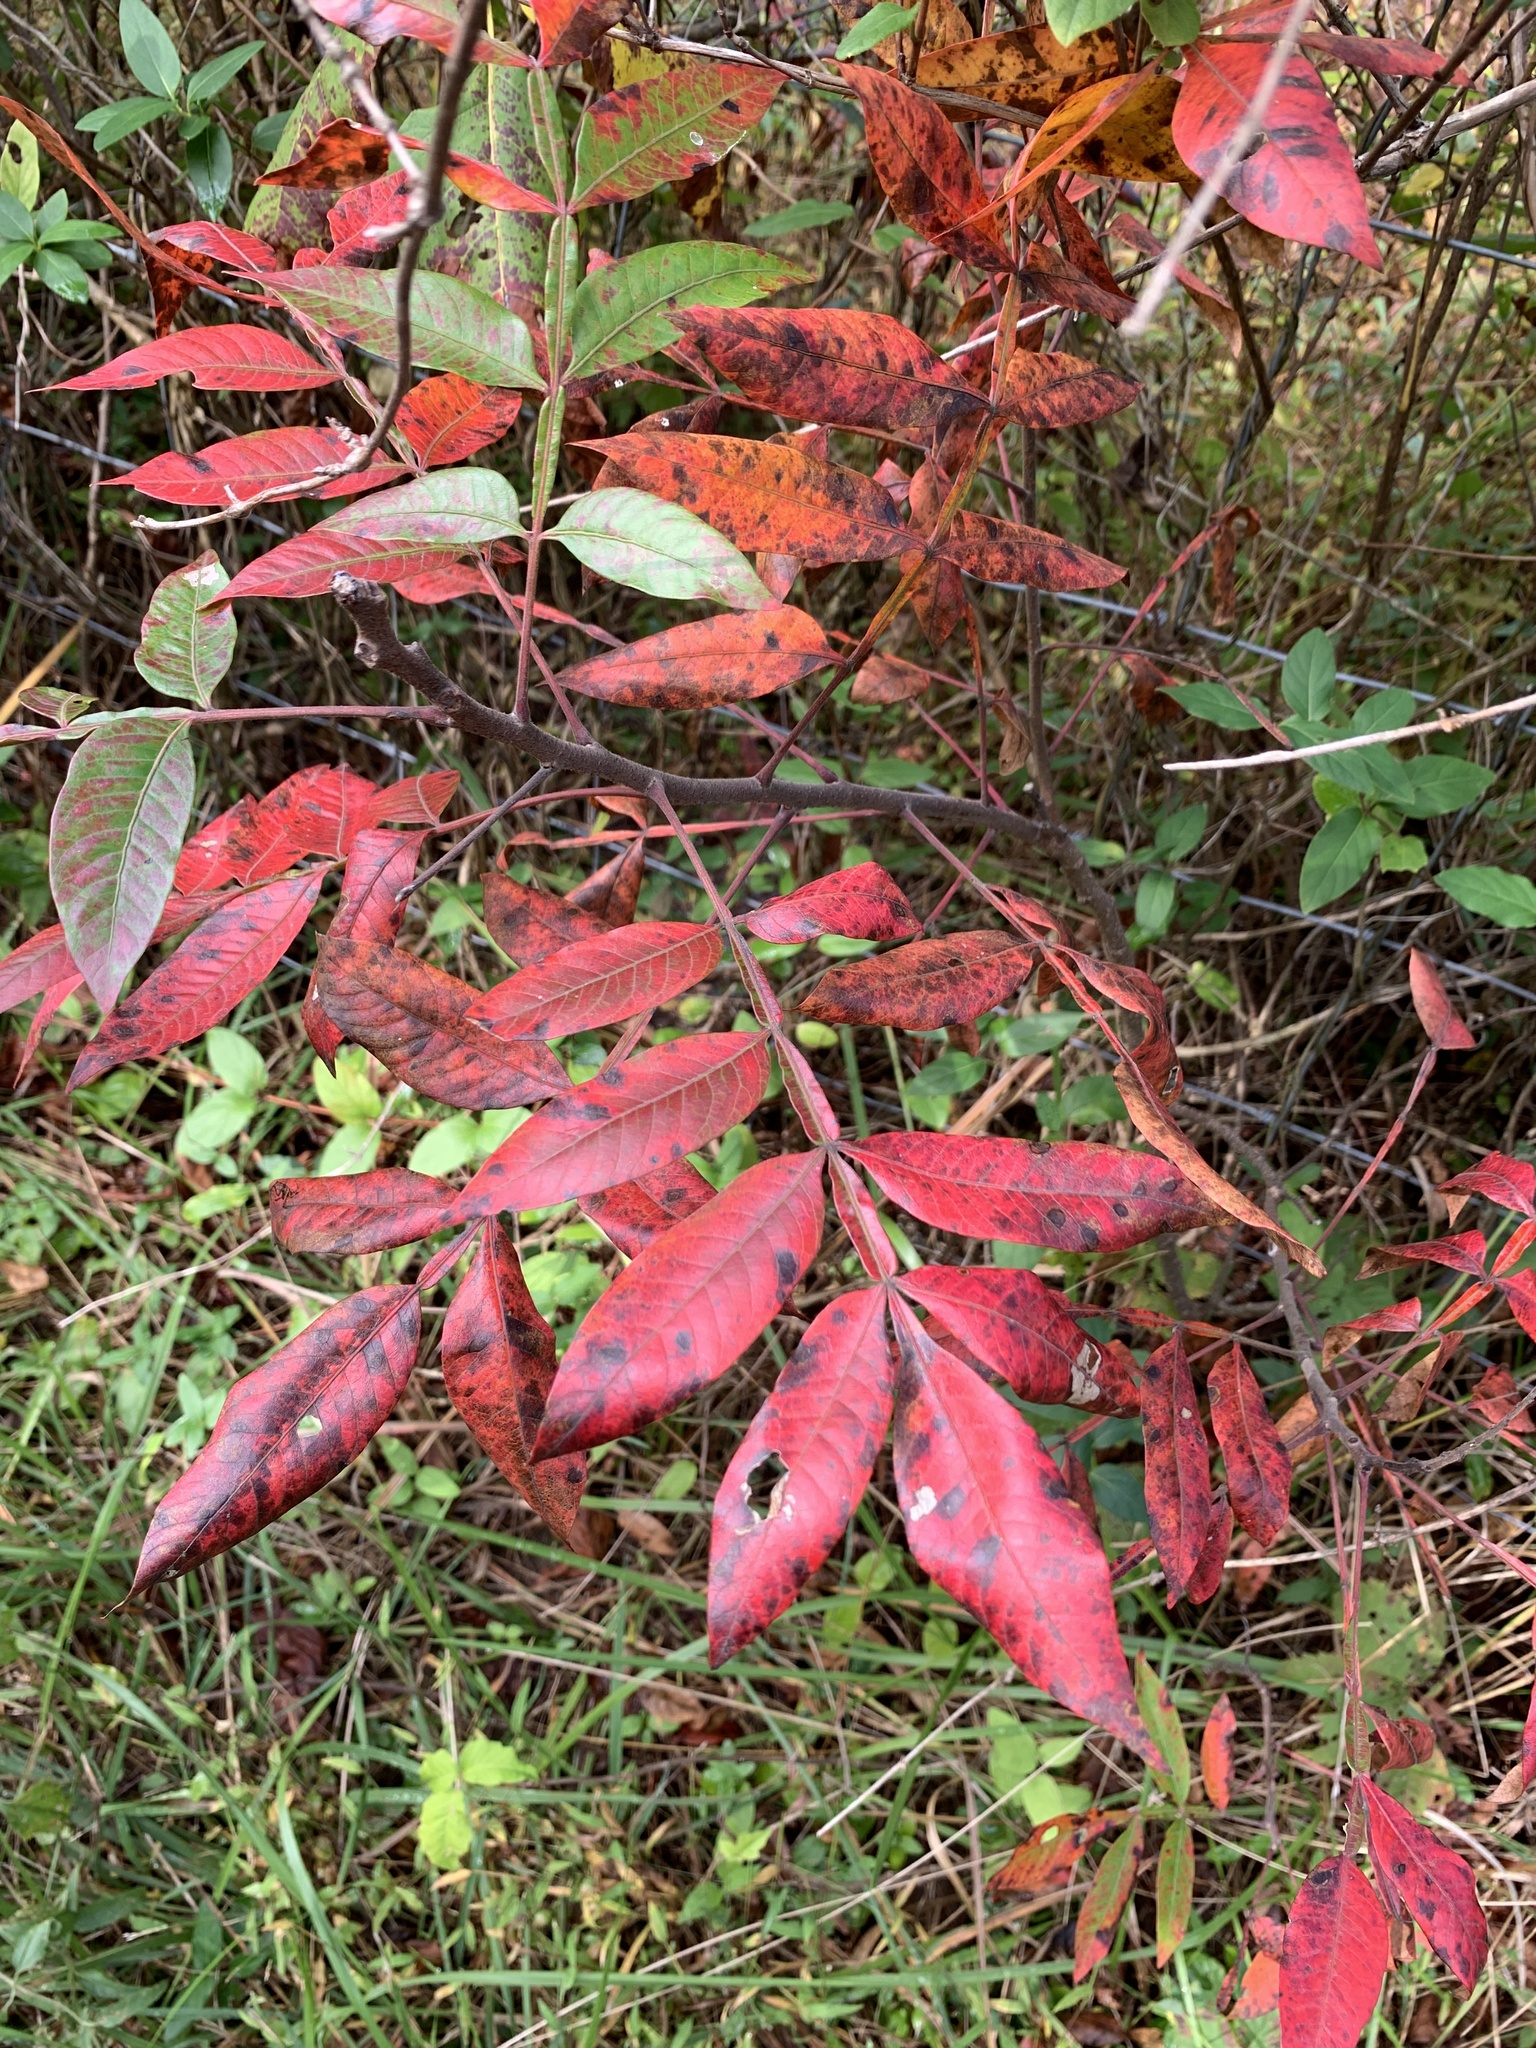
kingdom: Plantae
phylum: Tracheophyta
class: Magnoliopsida
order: Sapindales
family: Anacardiaceae
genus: Rhus
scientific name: Rhus copallina
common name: Shining sumac
